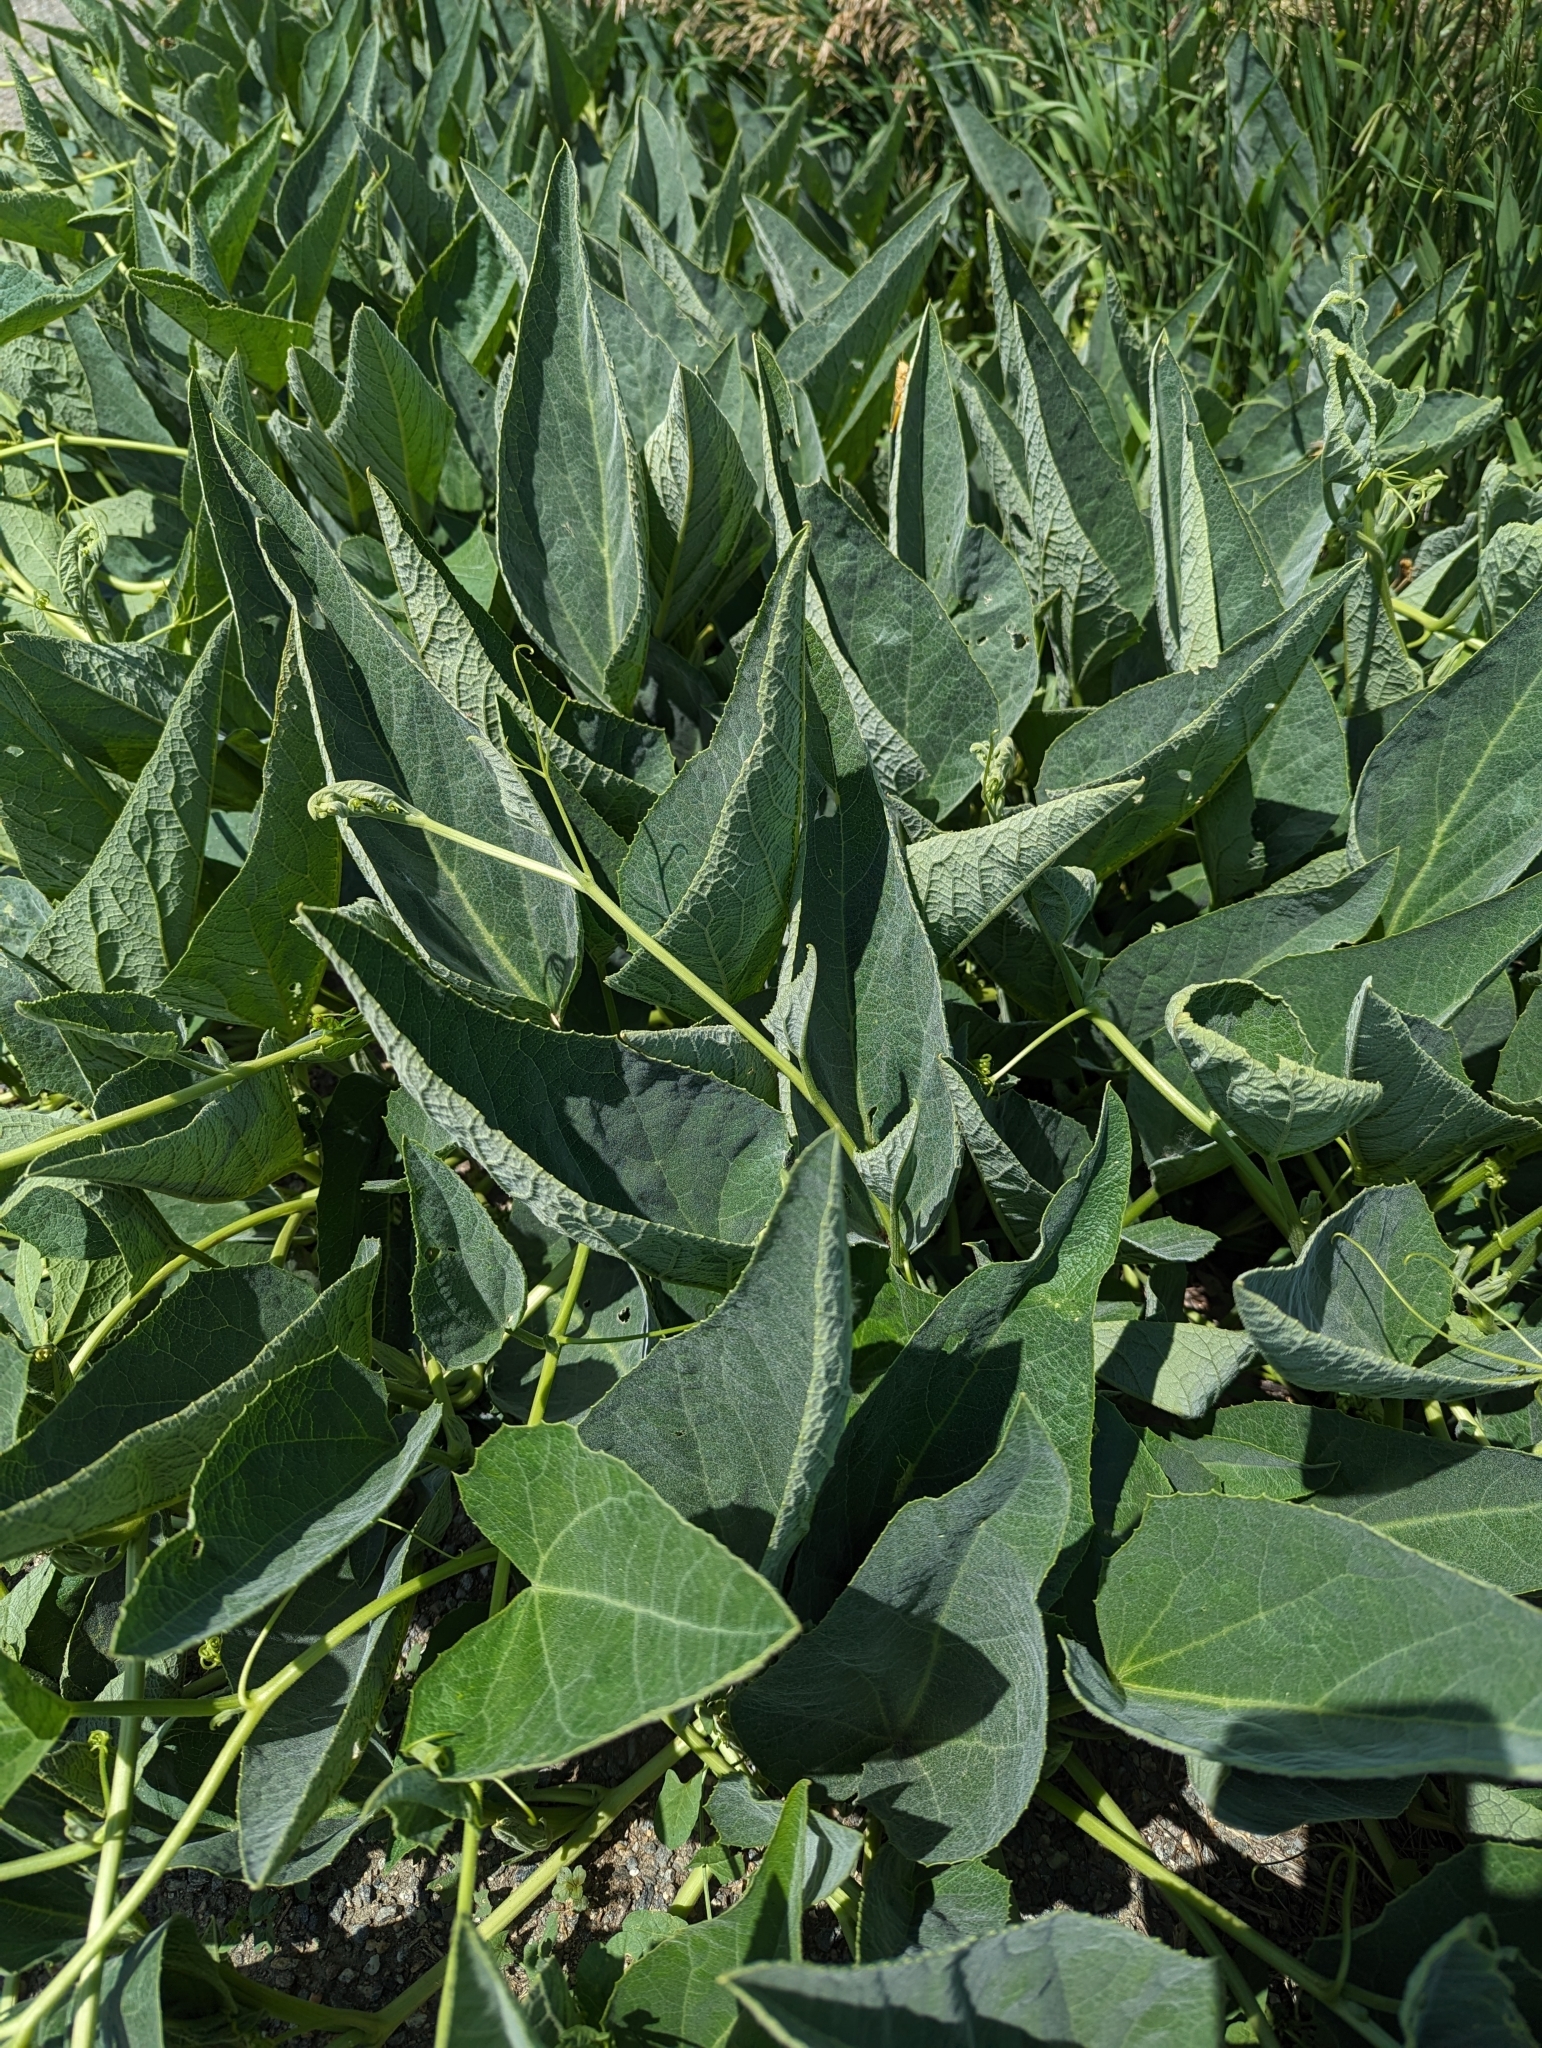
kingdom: Plantae
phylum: Tracheophyta
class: Magnoliopsida
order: Cucurbitales
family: Cucurbitaceae
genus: Cucurbita
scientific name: Cucurbita foetidissima
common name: Buffalo gourd
